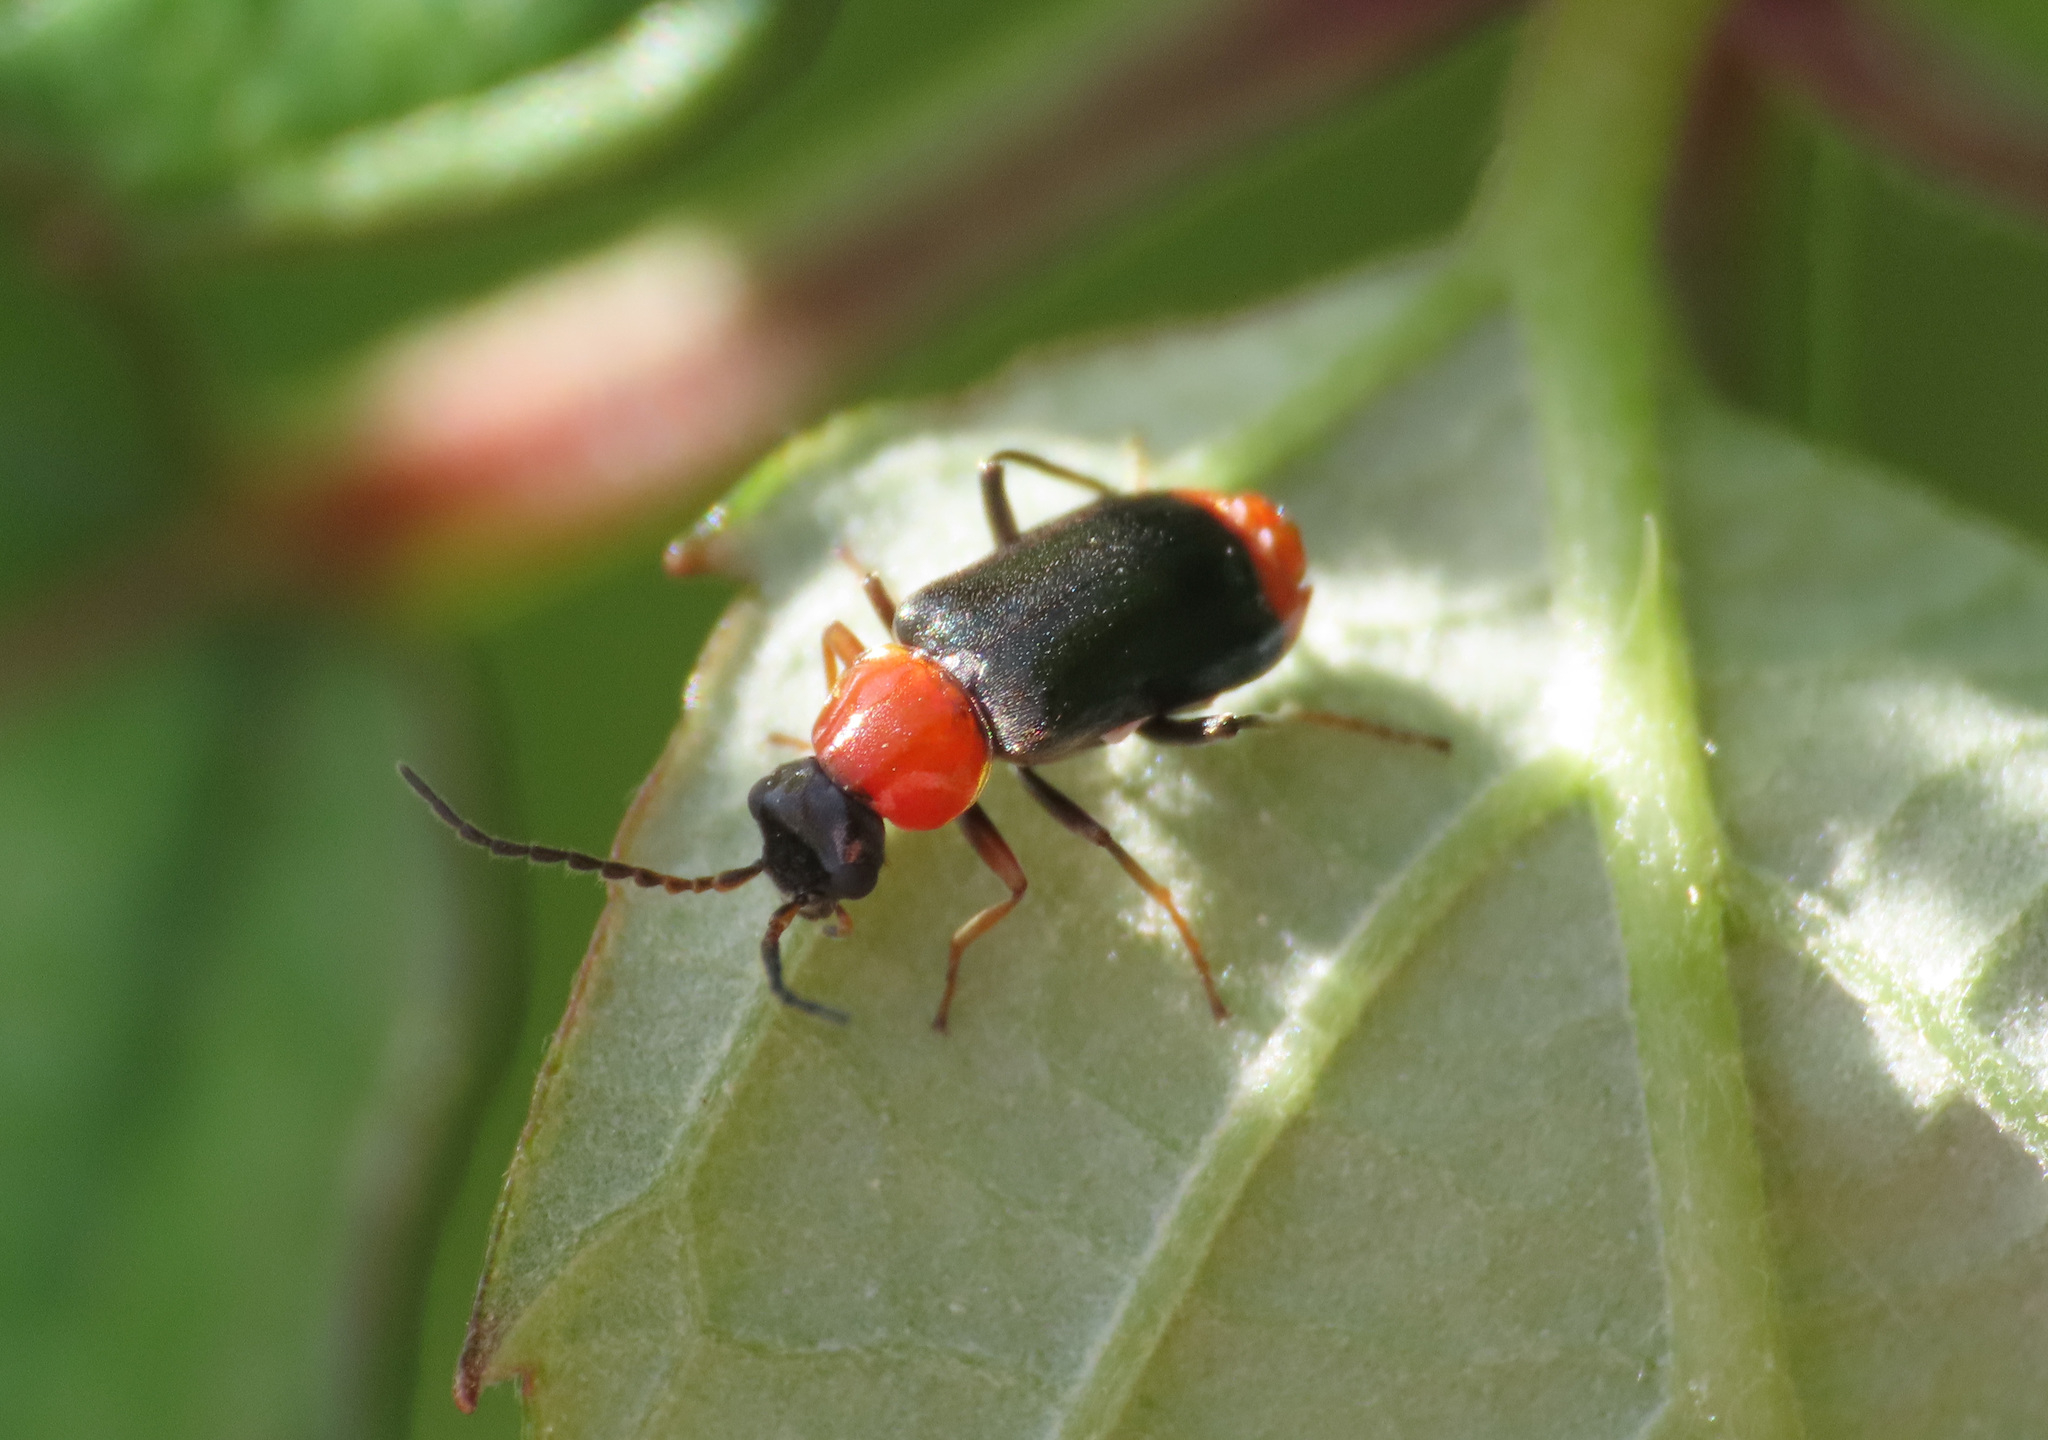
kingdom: Animalia
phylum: Arthropoda
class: Insecta
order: Coleoptera
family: Malachiidae
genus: Ebaeus
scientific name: Ebaeus battonii
